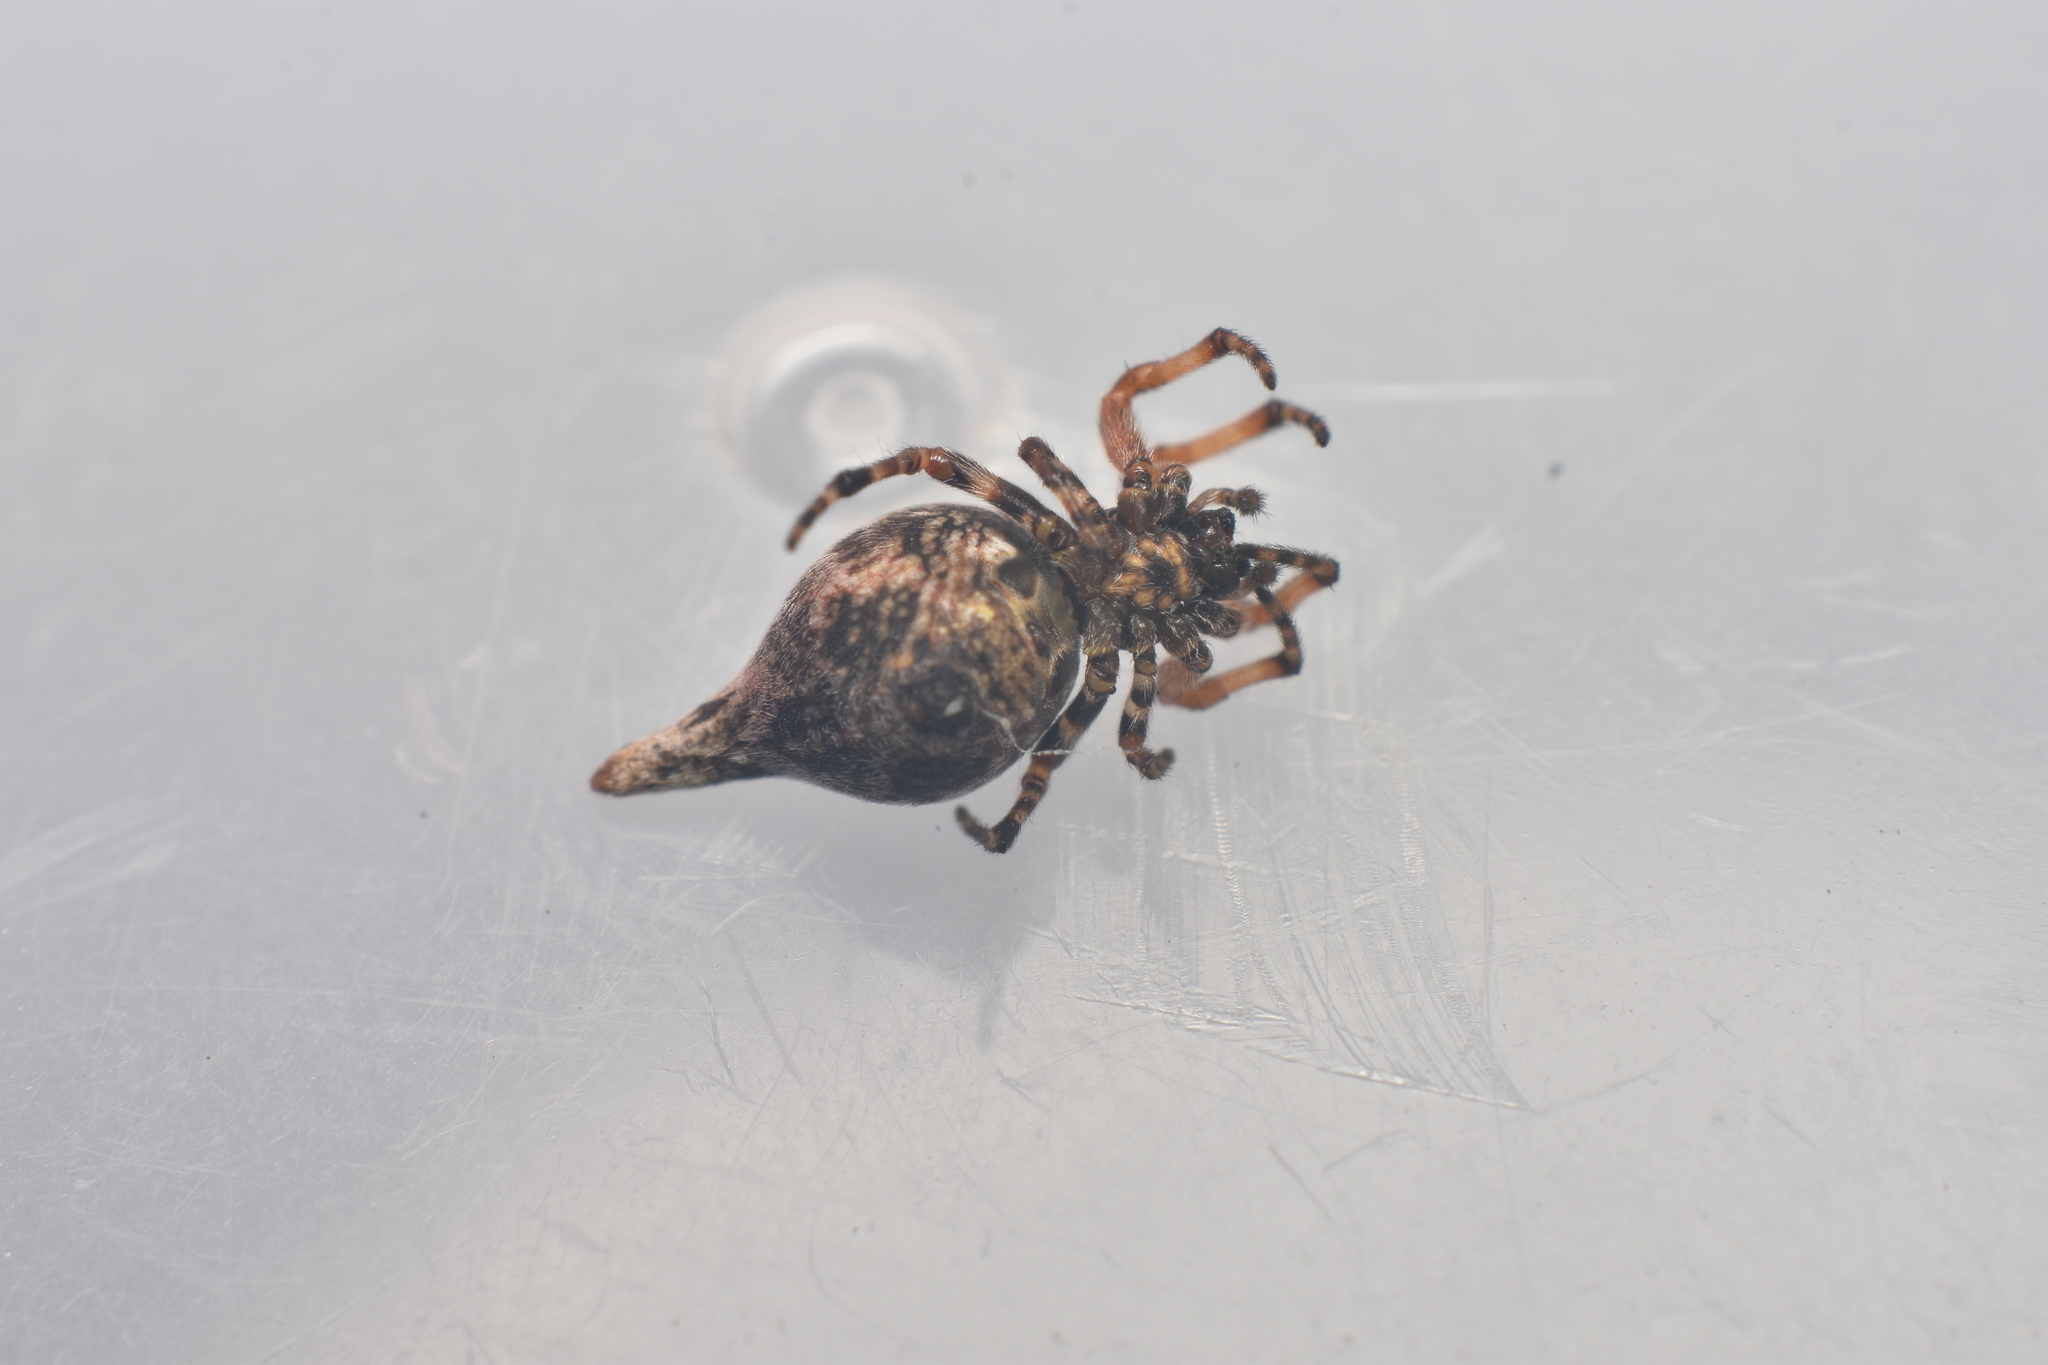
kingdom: Animalia
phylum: Arthropoda
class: Arachnida
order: Araneae
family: Araneidae
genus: Cyclosa
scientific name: Cyclosa huila
